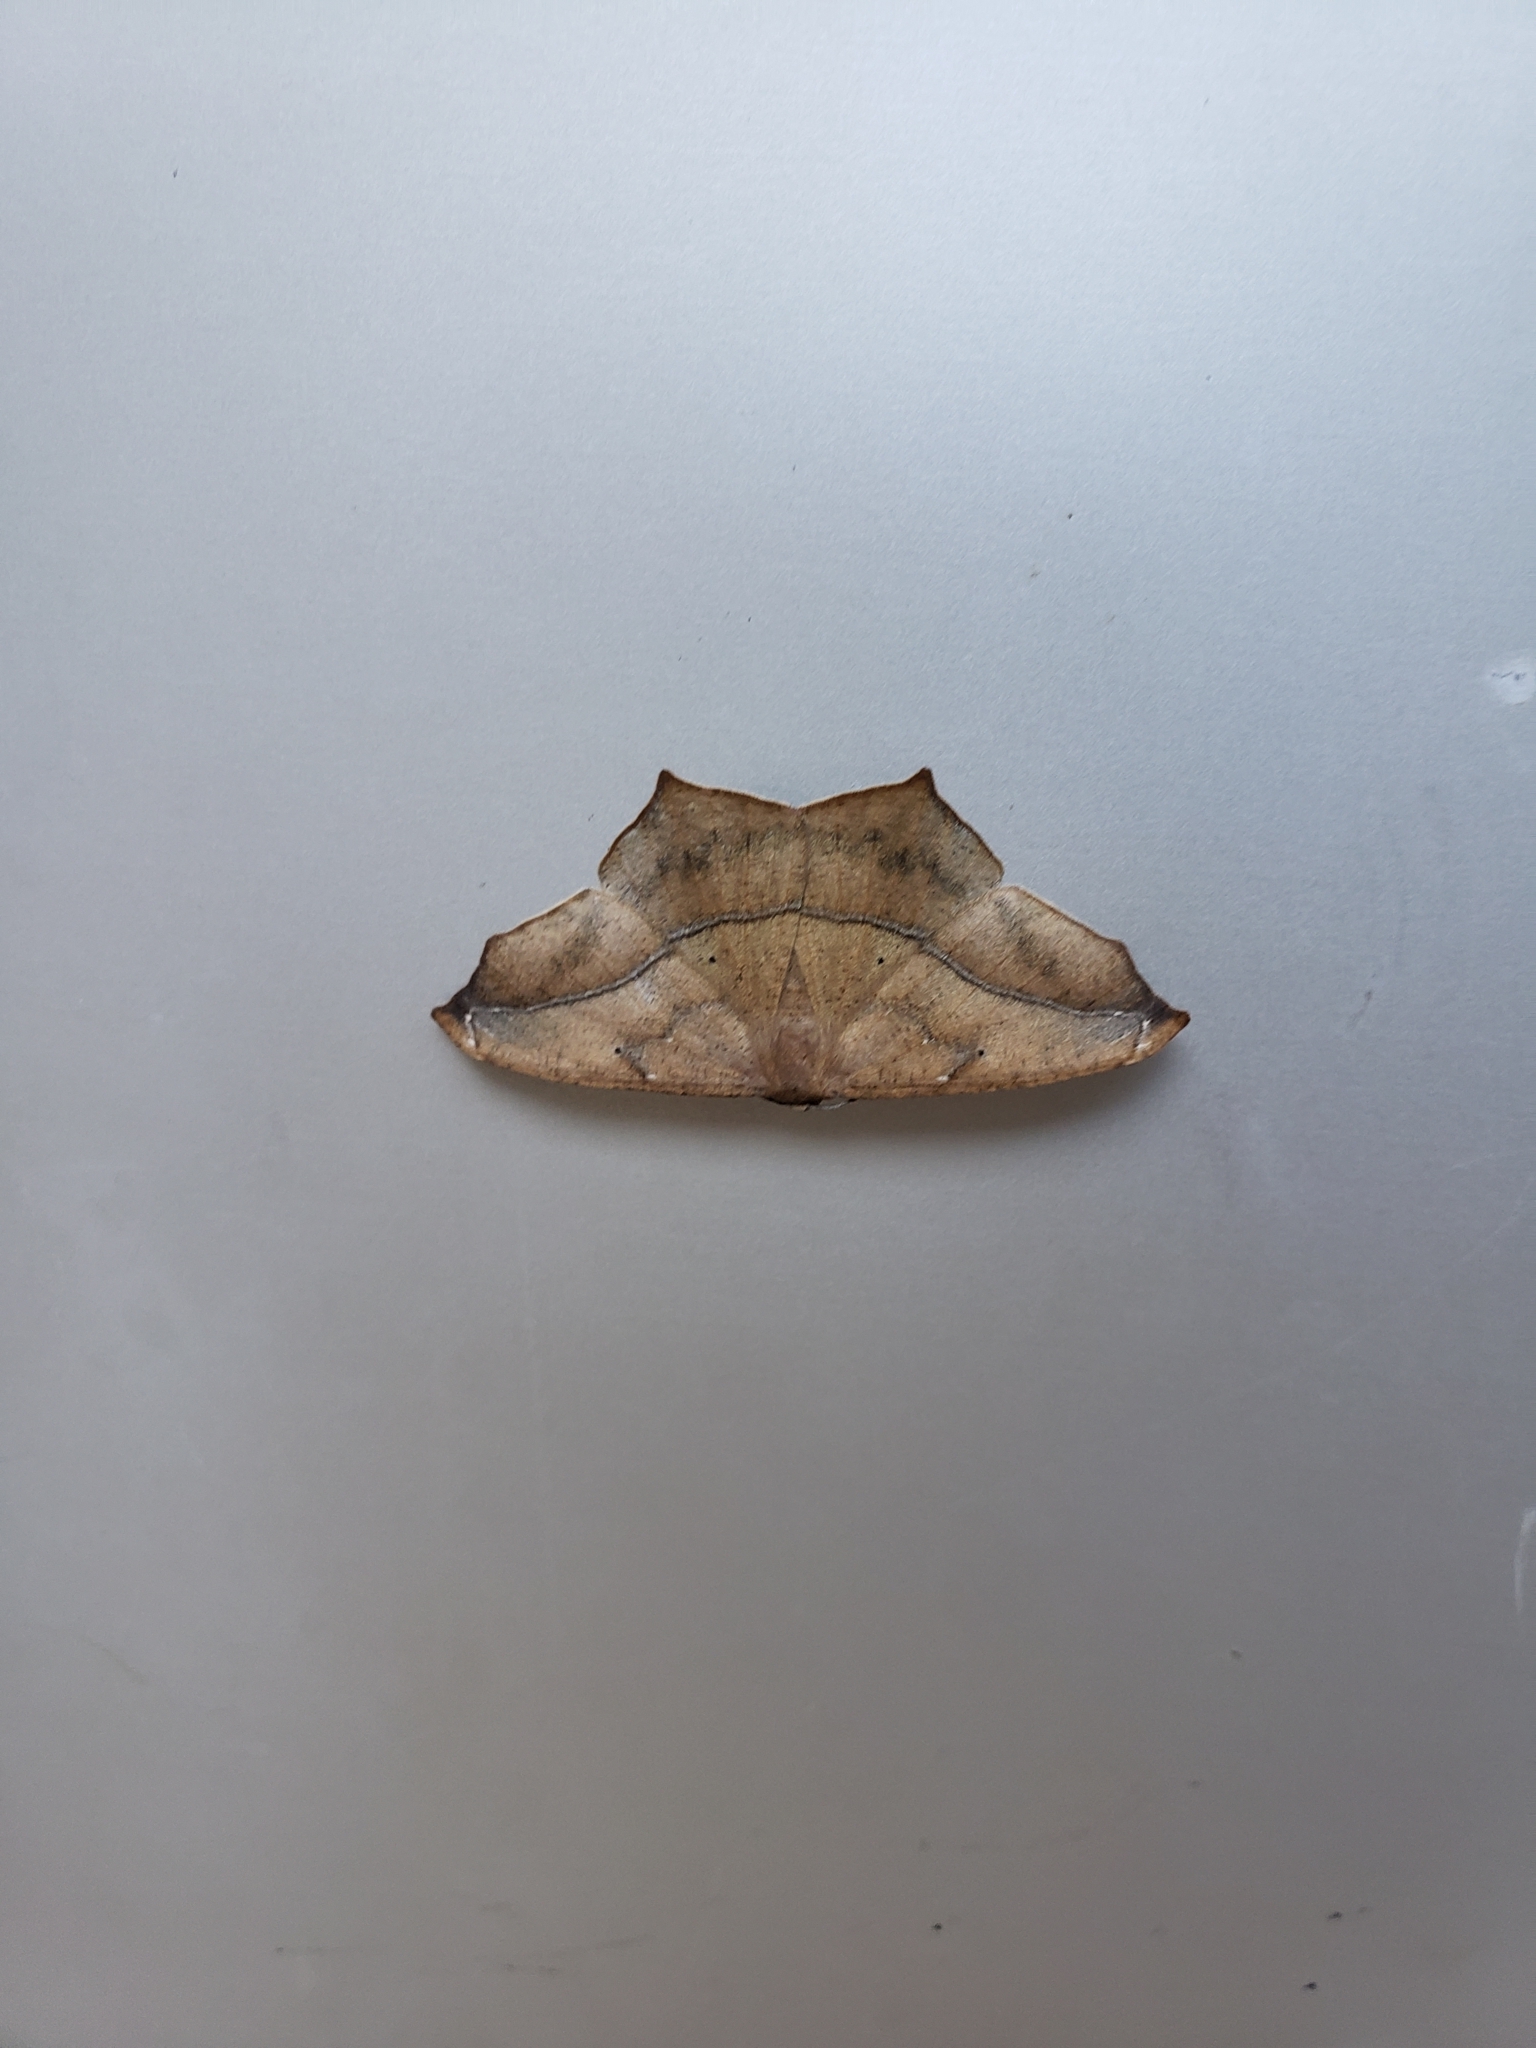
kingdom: Animalia
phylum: Arthropoda
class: Insecta
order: Lepidoptera
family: Geometridae
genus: Prochoerodes
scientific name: Prochoerodes lineola
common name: Large maple spanworm
